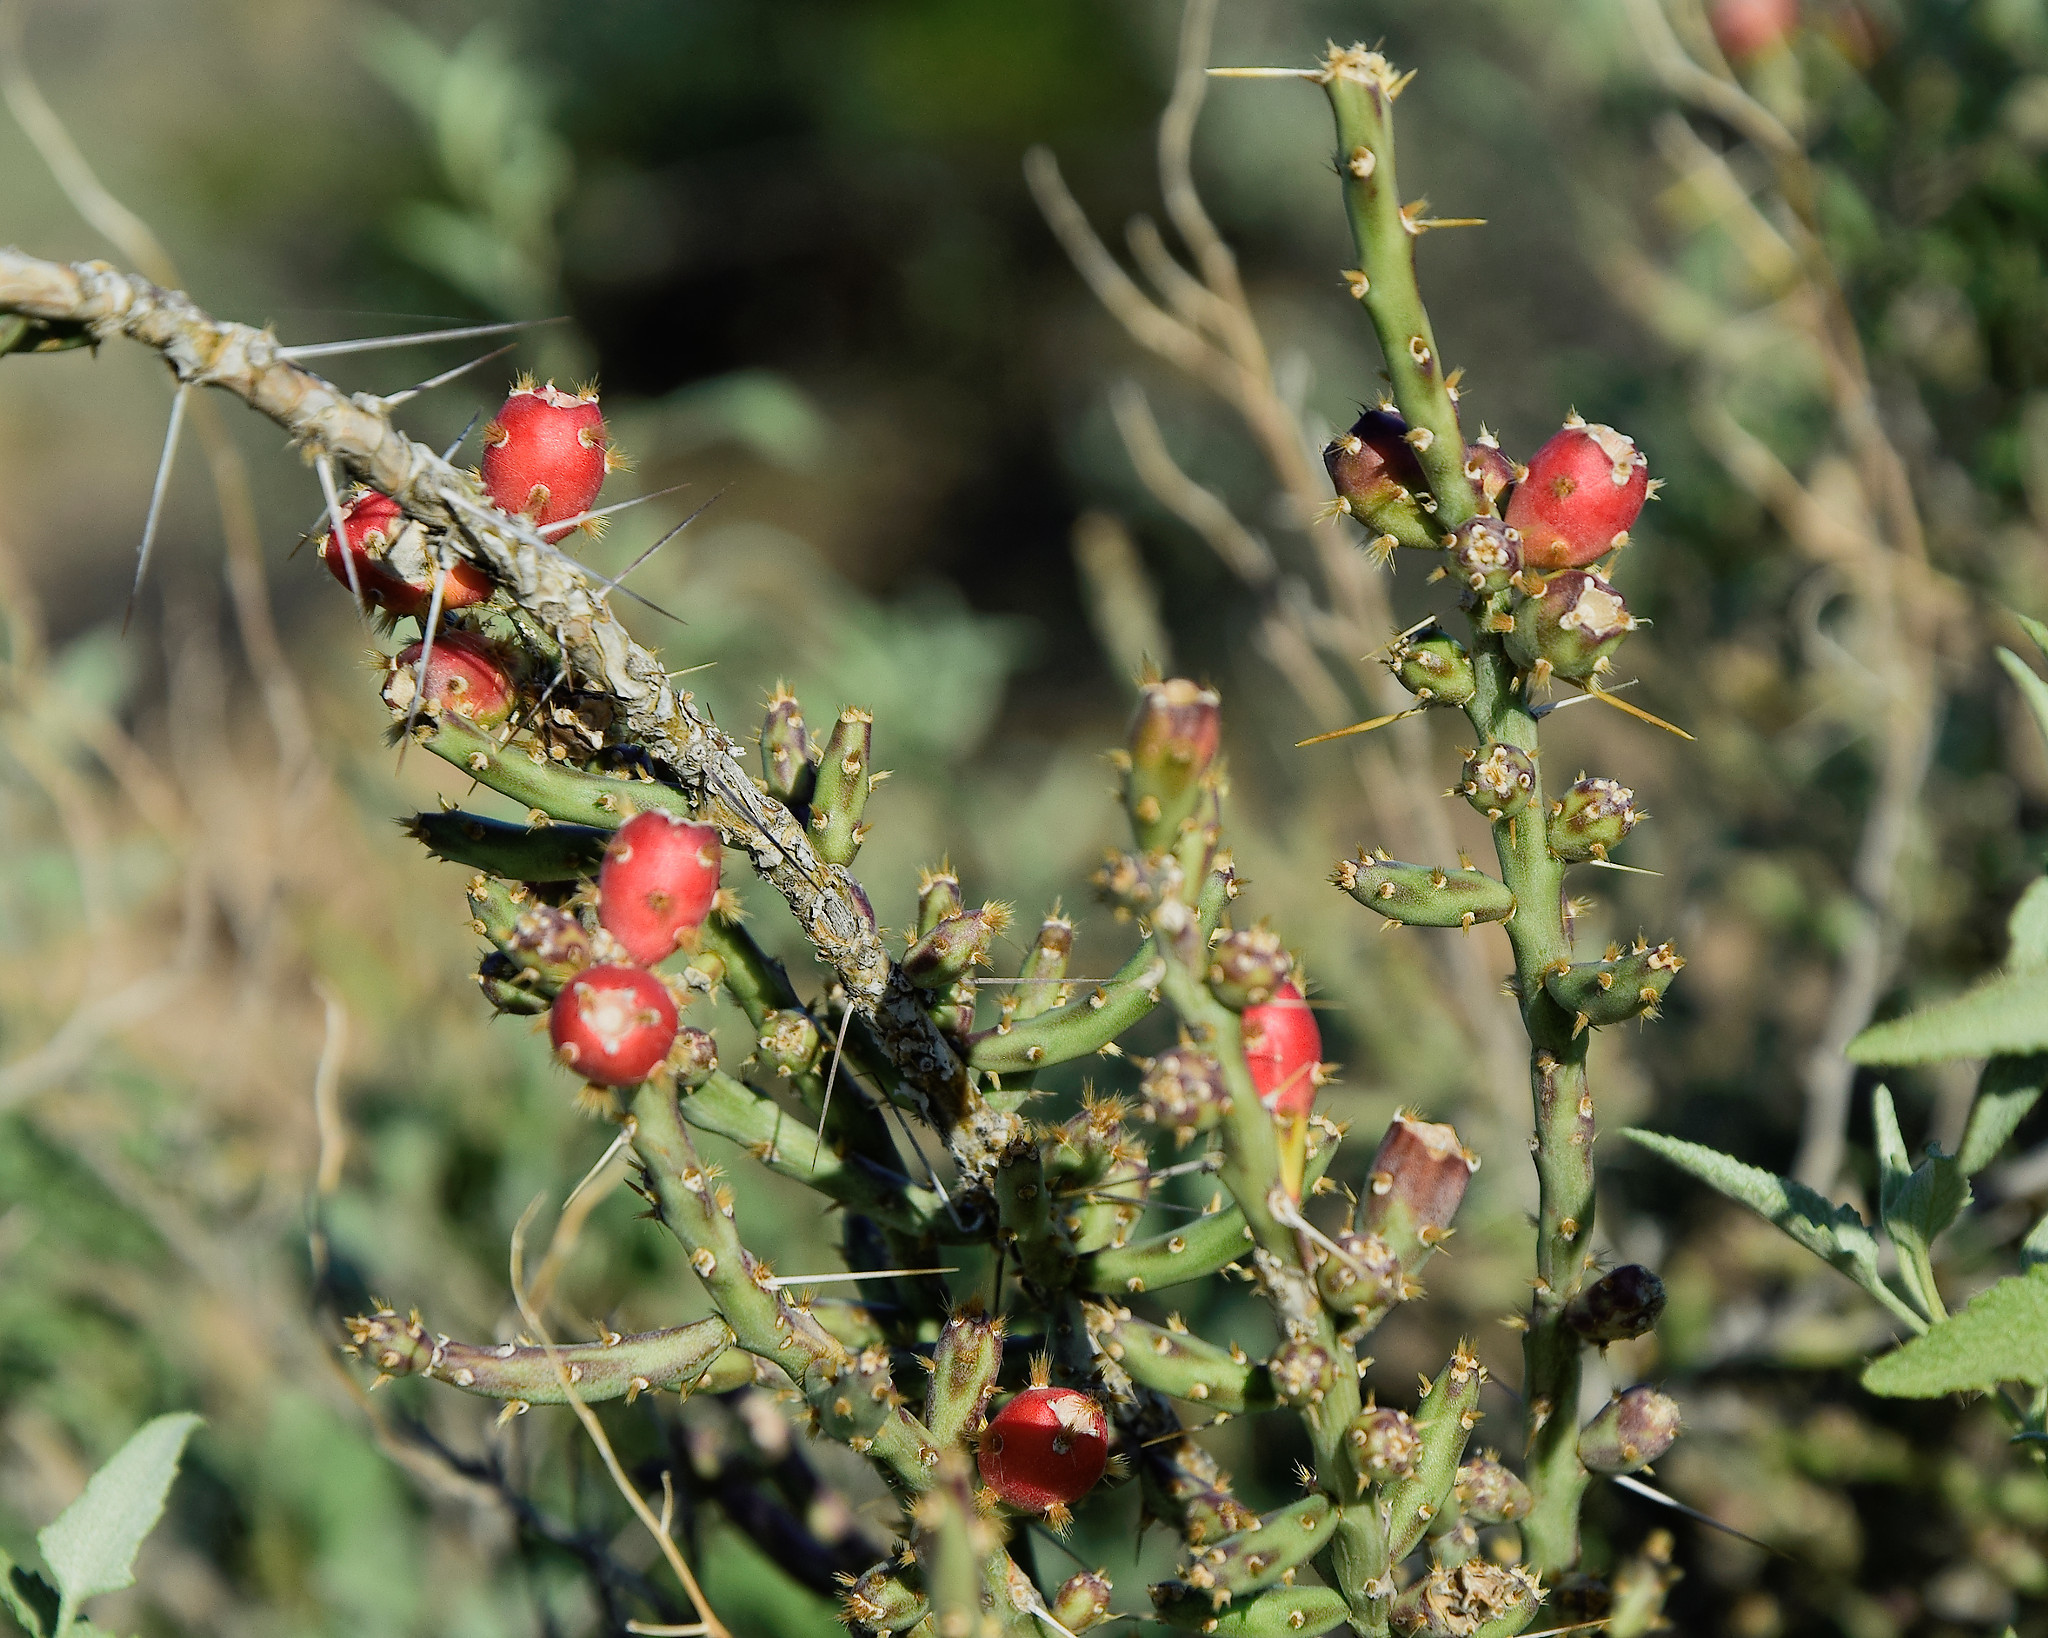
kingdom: Plantae
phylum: Tracheophyta
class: Magnoliopsida
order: Caryophyllales
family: Cactaceae
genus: Cylindropuntia
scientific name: Cylindropuntia leptocaulis
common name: Christmas cactus
